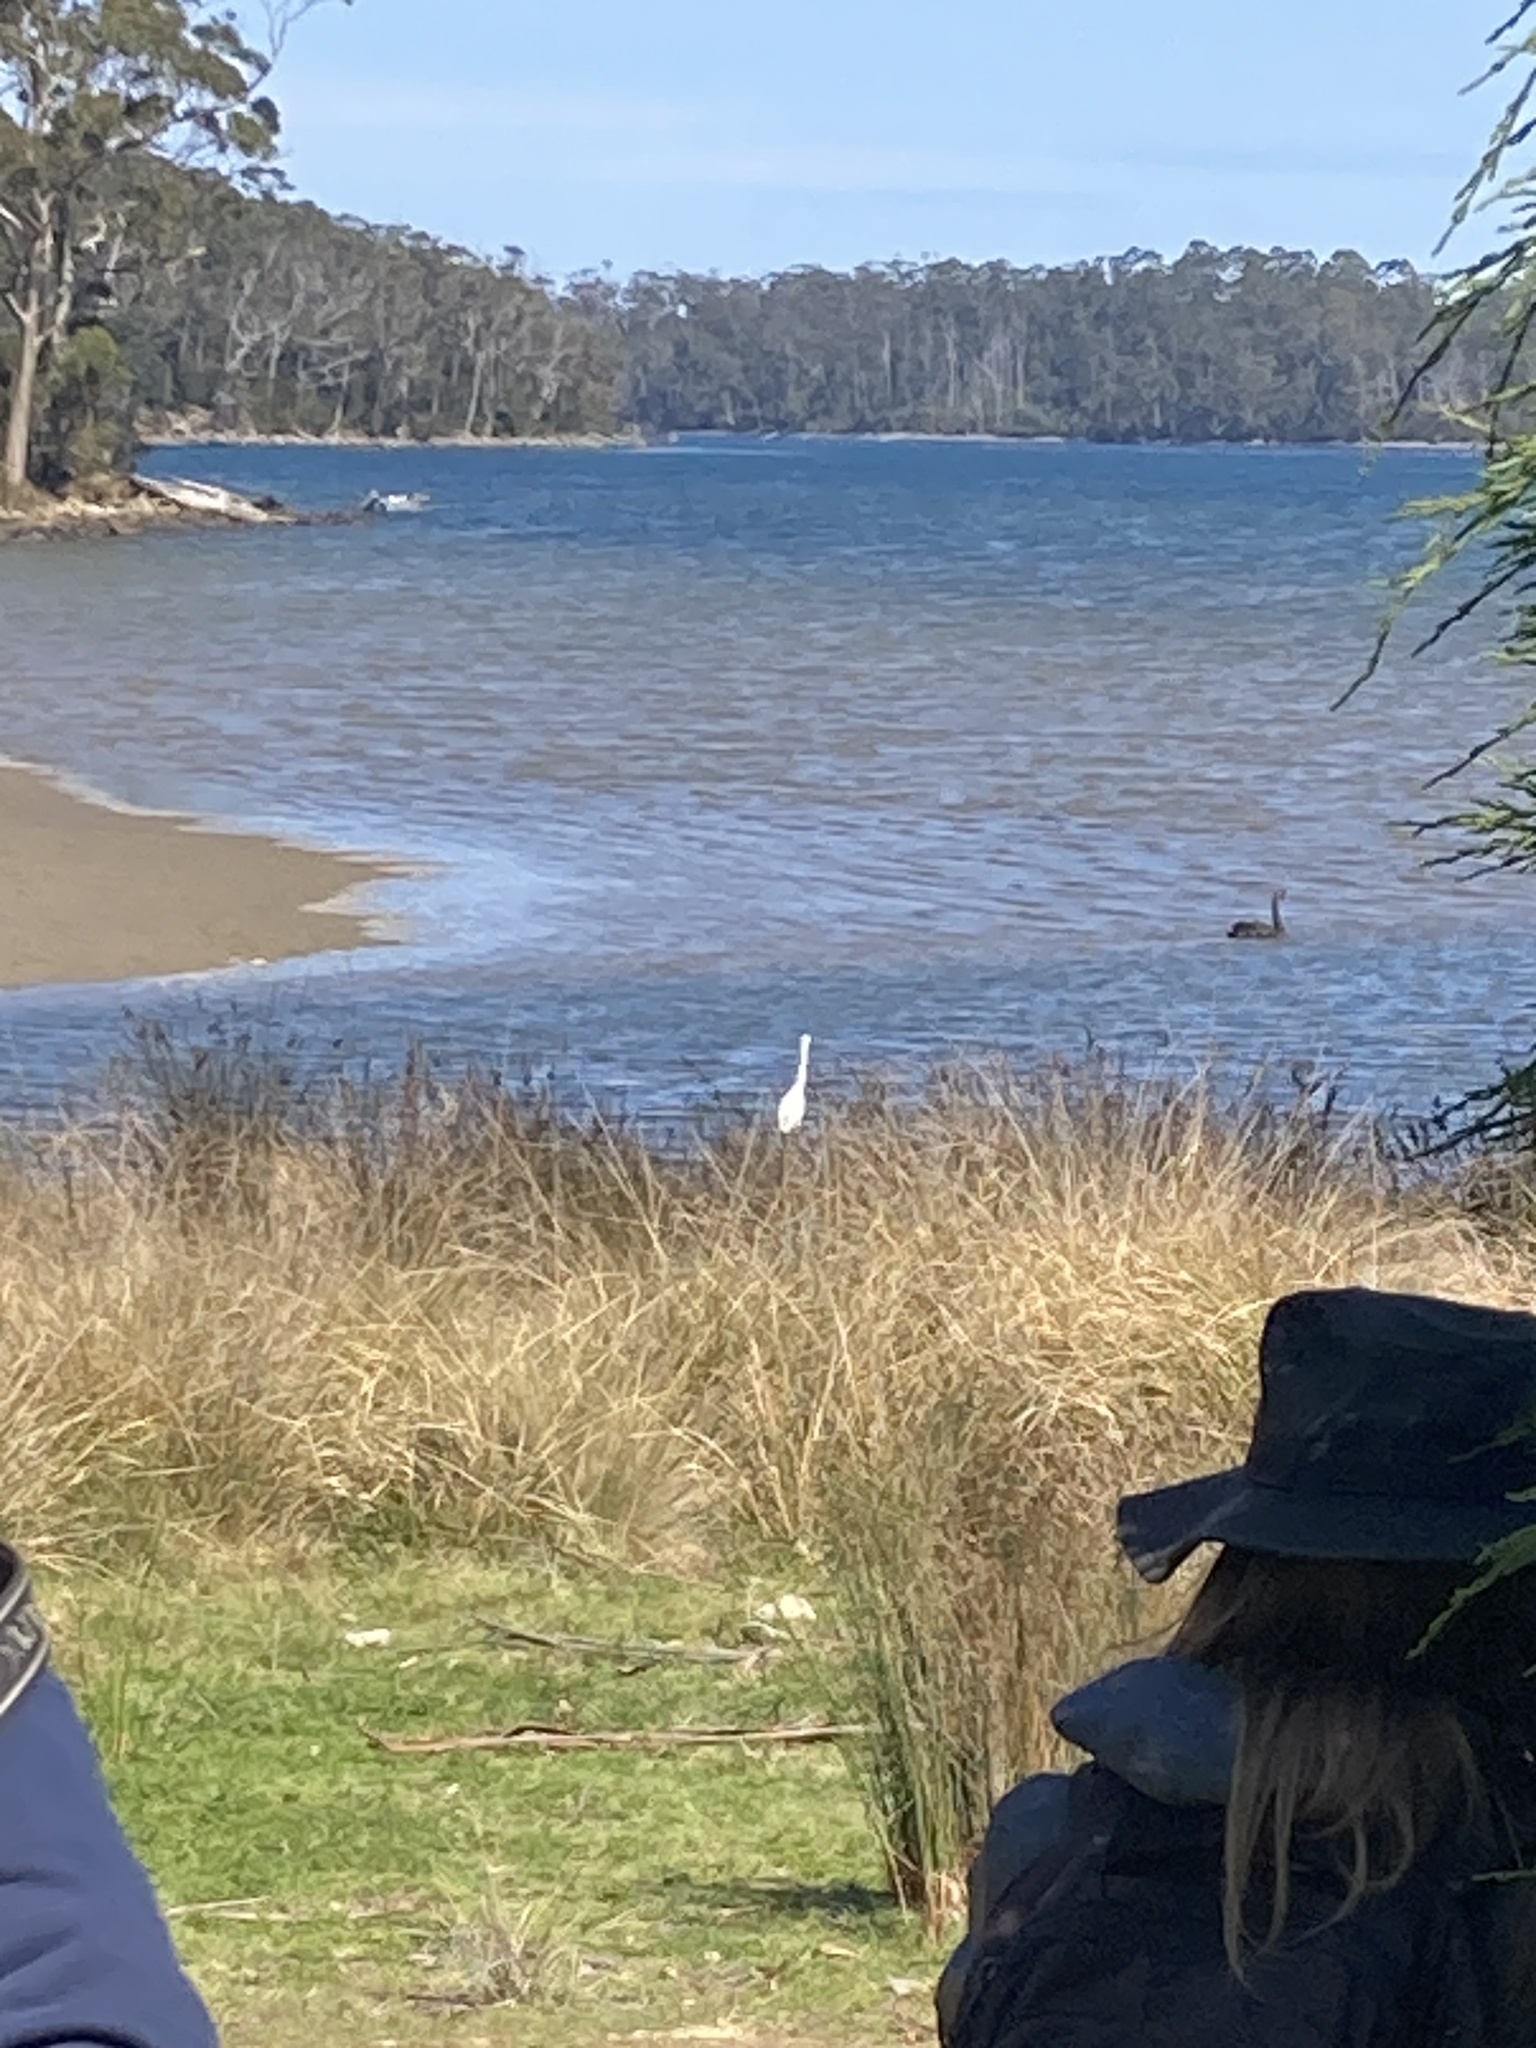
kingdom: Animalia
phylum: Chordata
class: Aves
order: Pelecaniformes
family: Ardeidae
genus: Ardea
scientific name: Ardea alba
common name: Great egret
